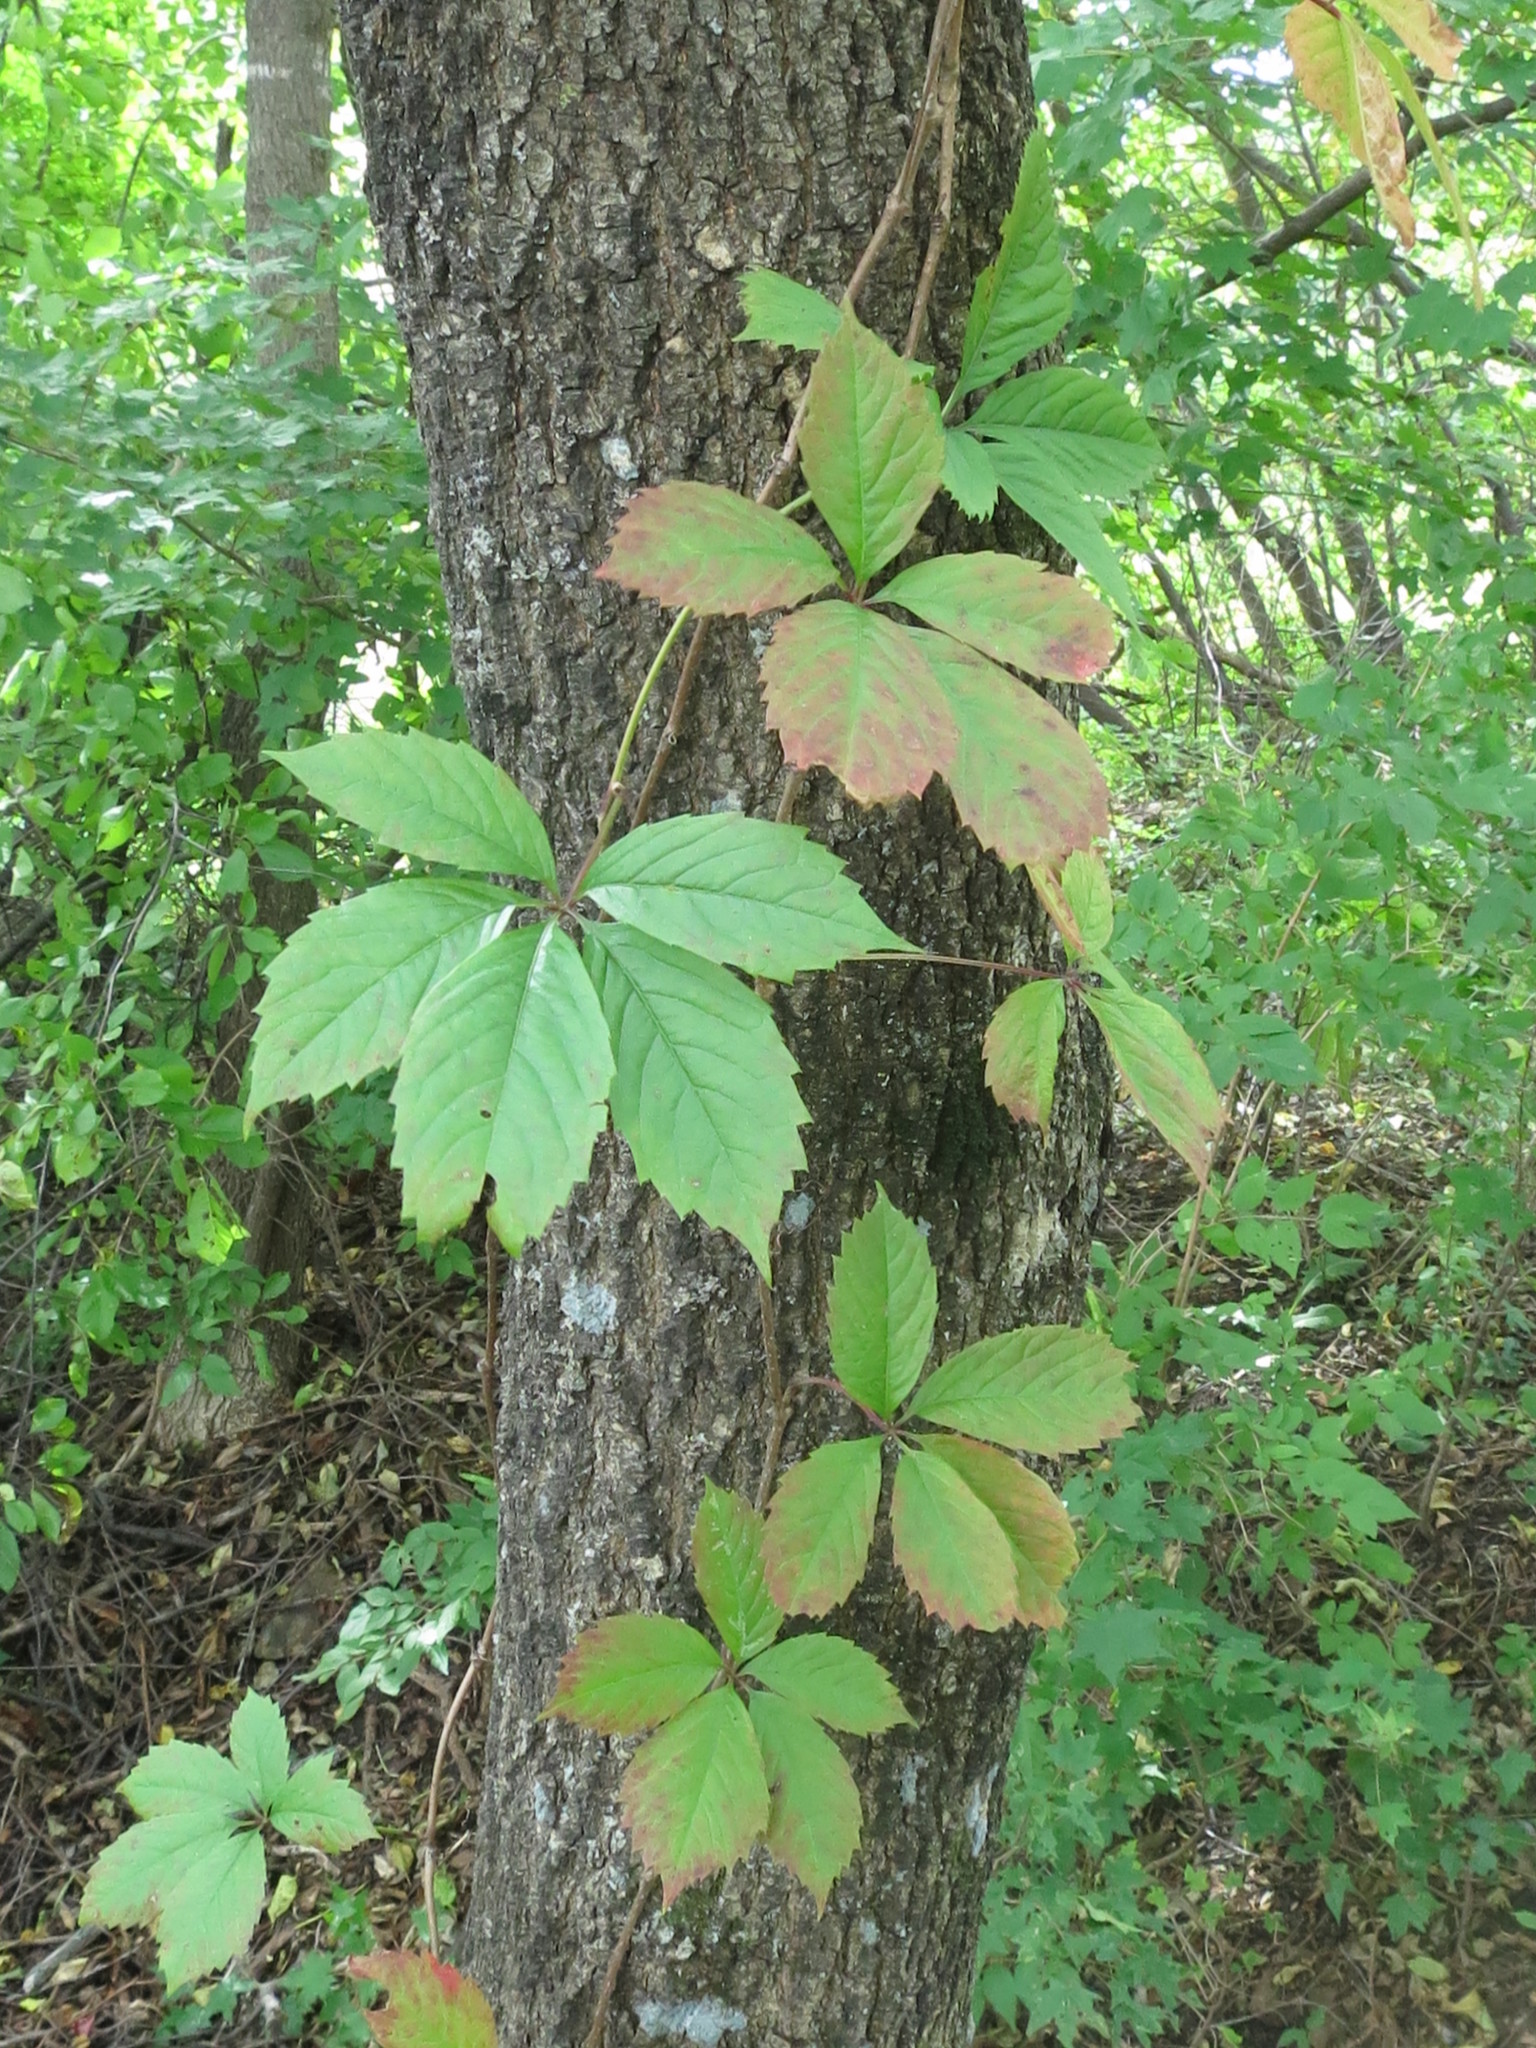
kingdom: Plantae
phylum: Tracheophyta
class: Magnoliopsida
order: Vitales
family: Vitaceae
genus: Parthenocissus
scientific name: Parthenocissus quinquefolia
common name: Virginia-creeper
